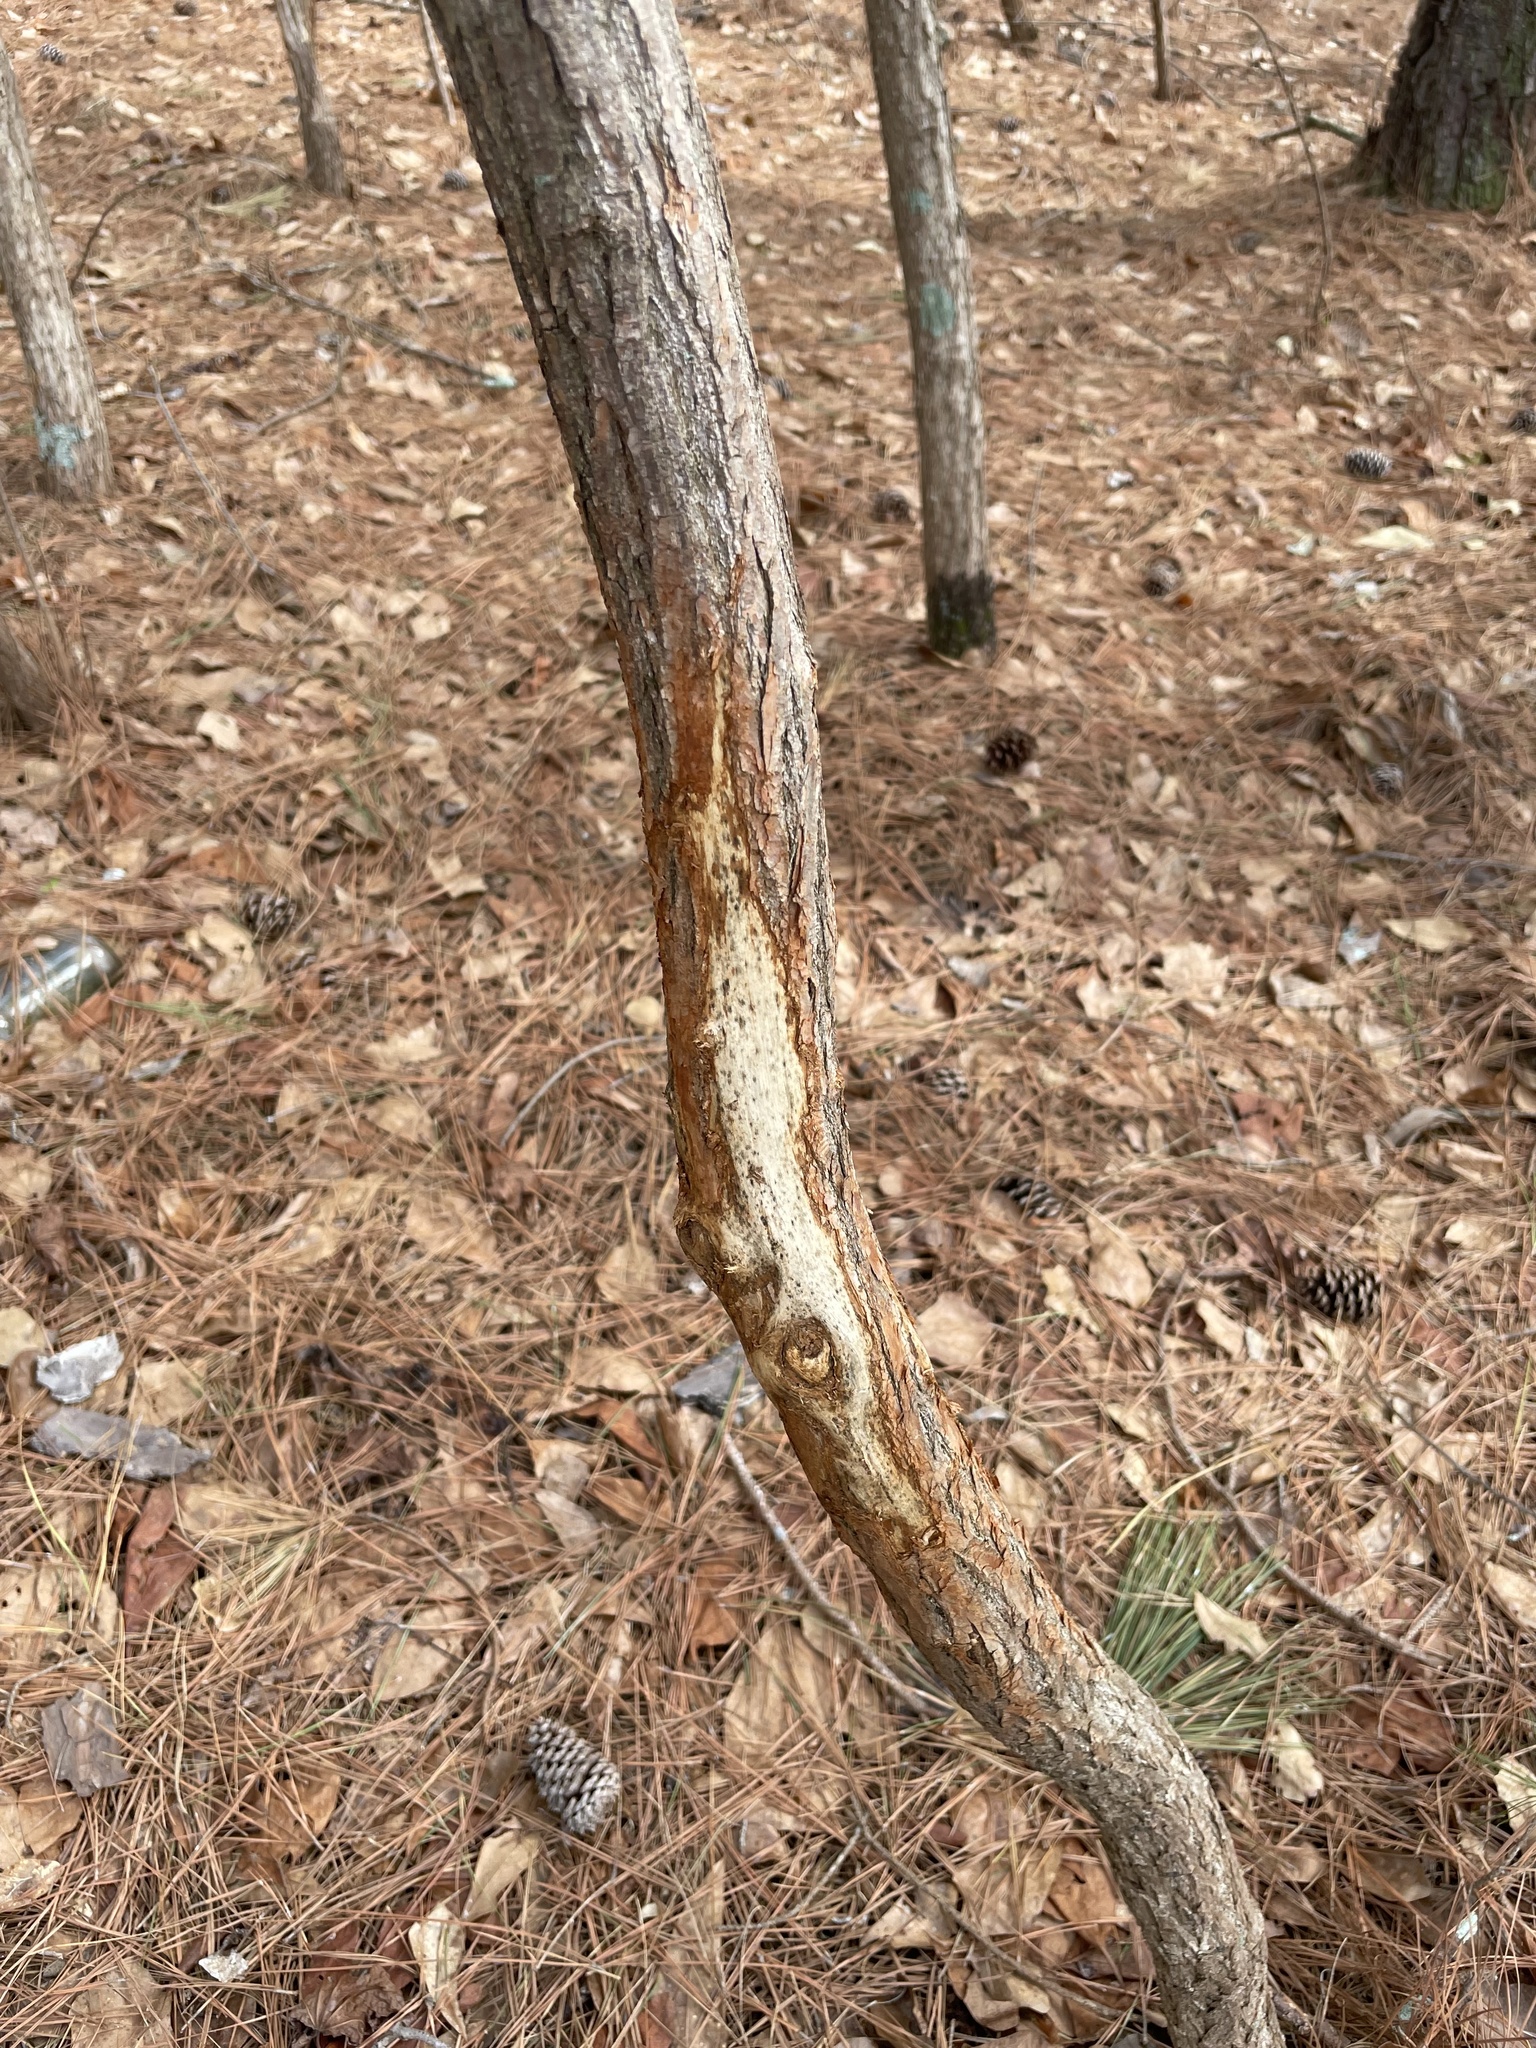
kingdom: Animalia
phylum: Chordata
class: Mammalia
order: Artiodactyla
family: Cervidae
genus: Odocoileus
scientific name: Odocoileus virginianus
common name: White-tailed deer
